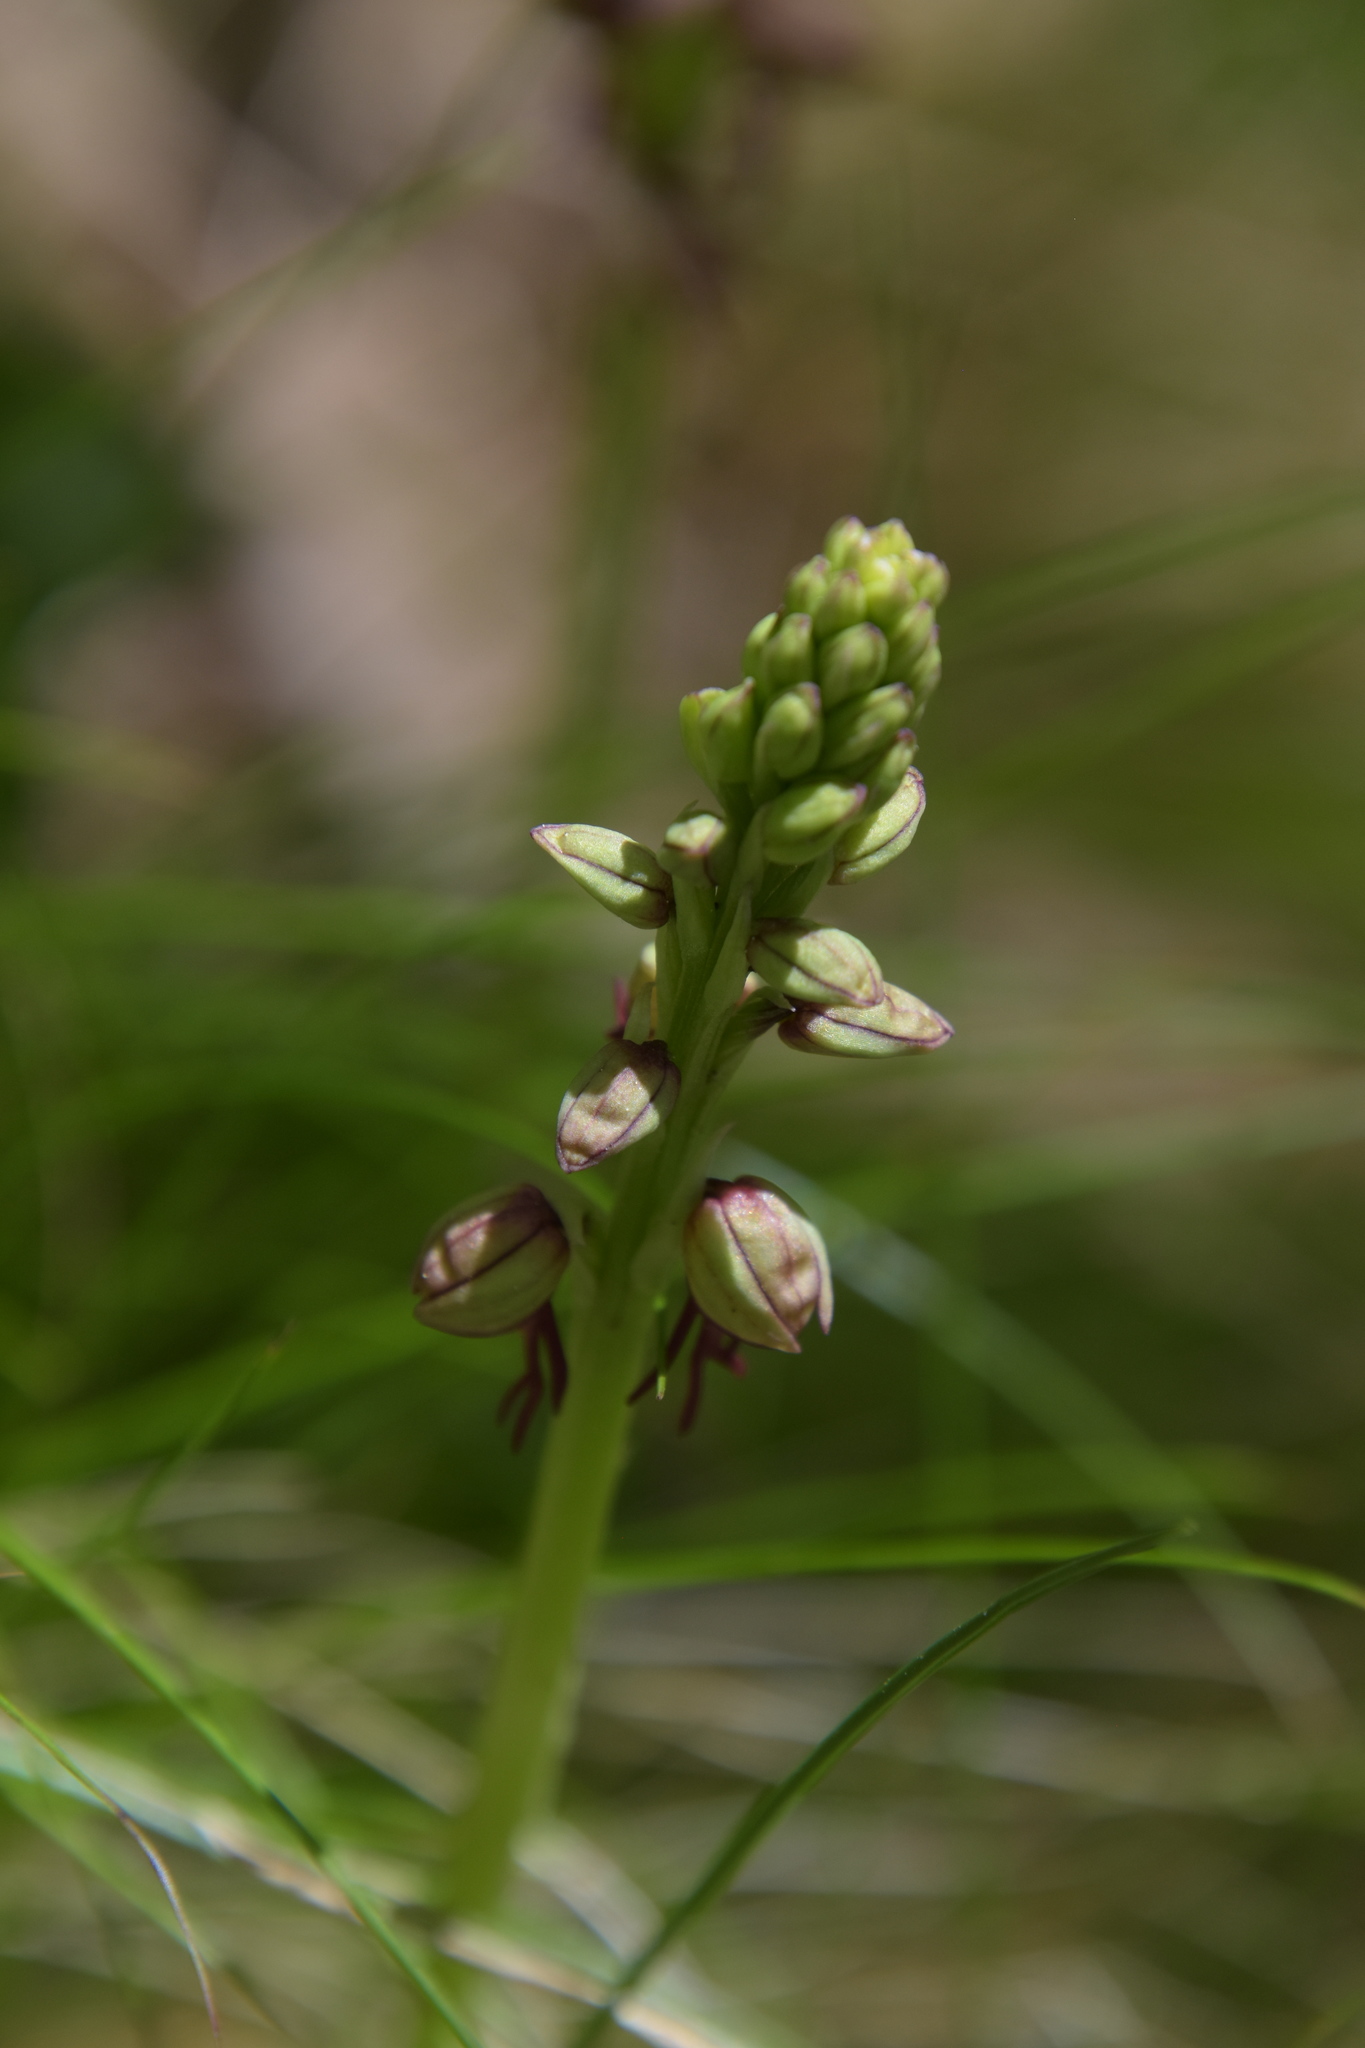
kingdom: Plantae
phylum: Tracheophyta
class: Liliopsida
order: Asparagales
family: Orchidaceae
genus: Orchis
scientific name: Orchis anthropophora
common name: Man orchid
